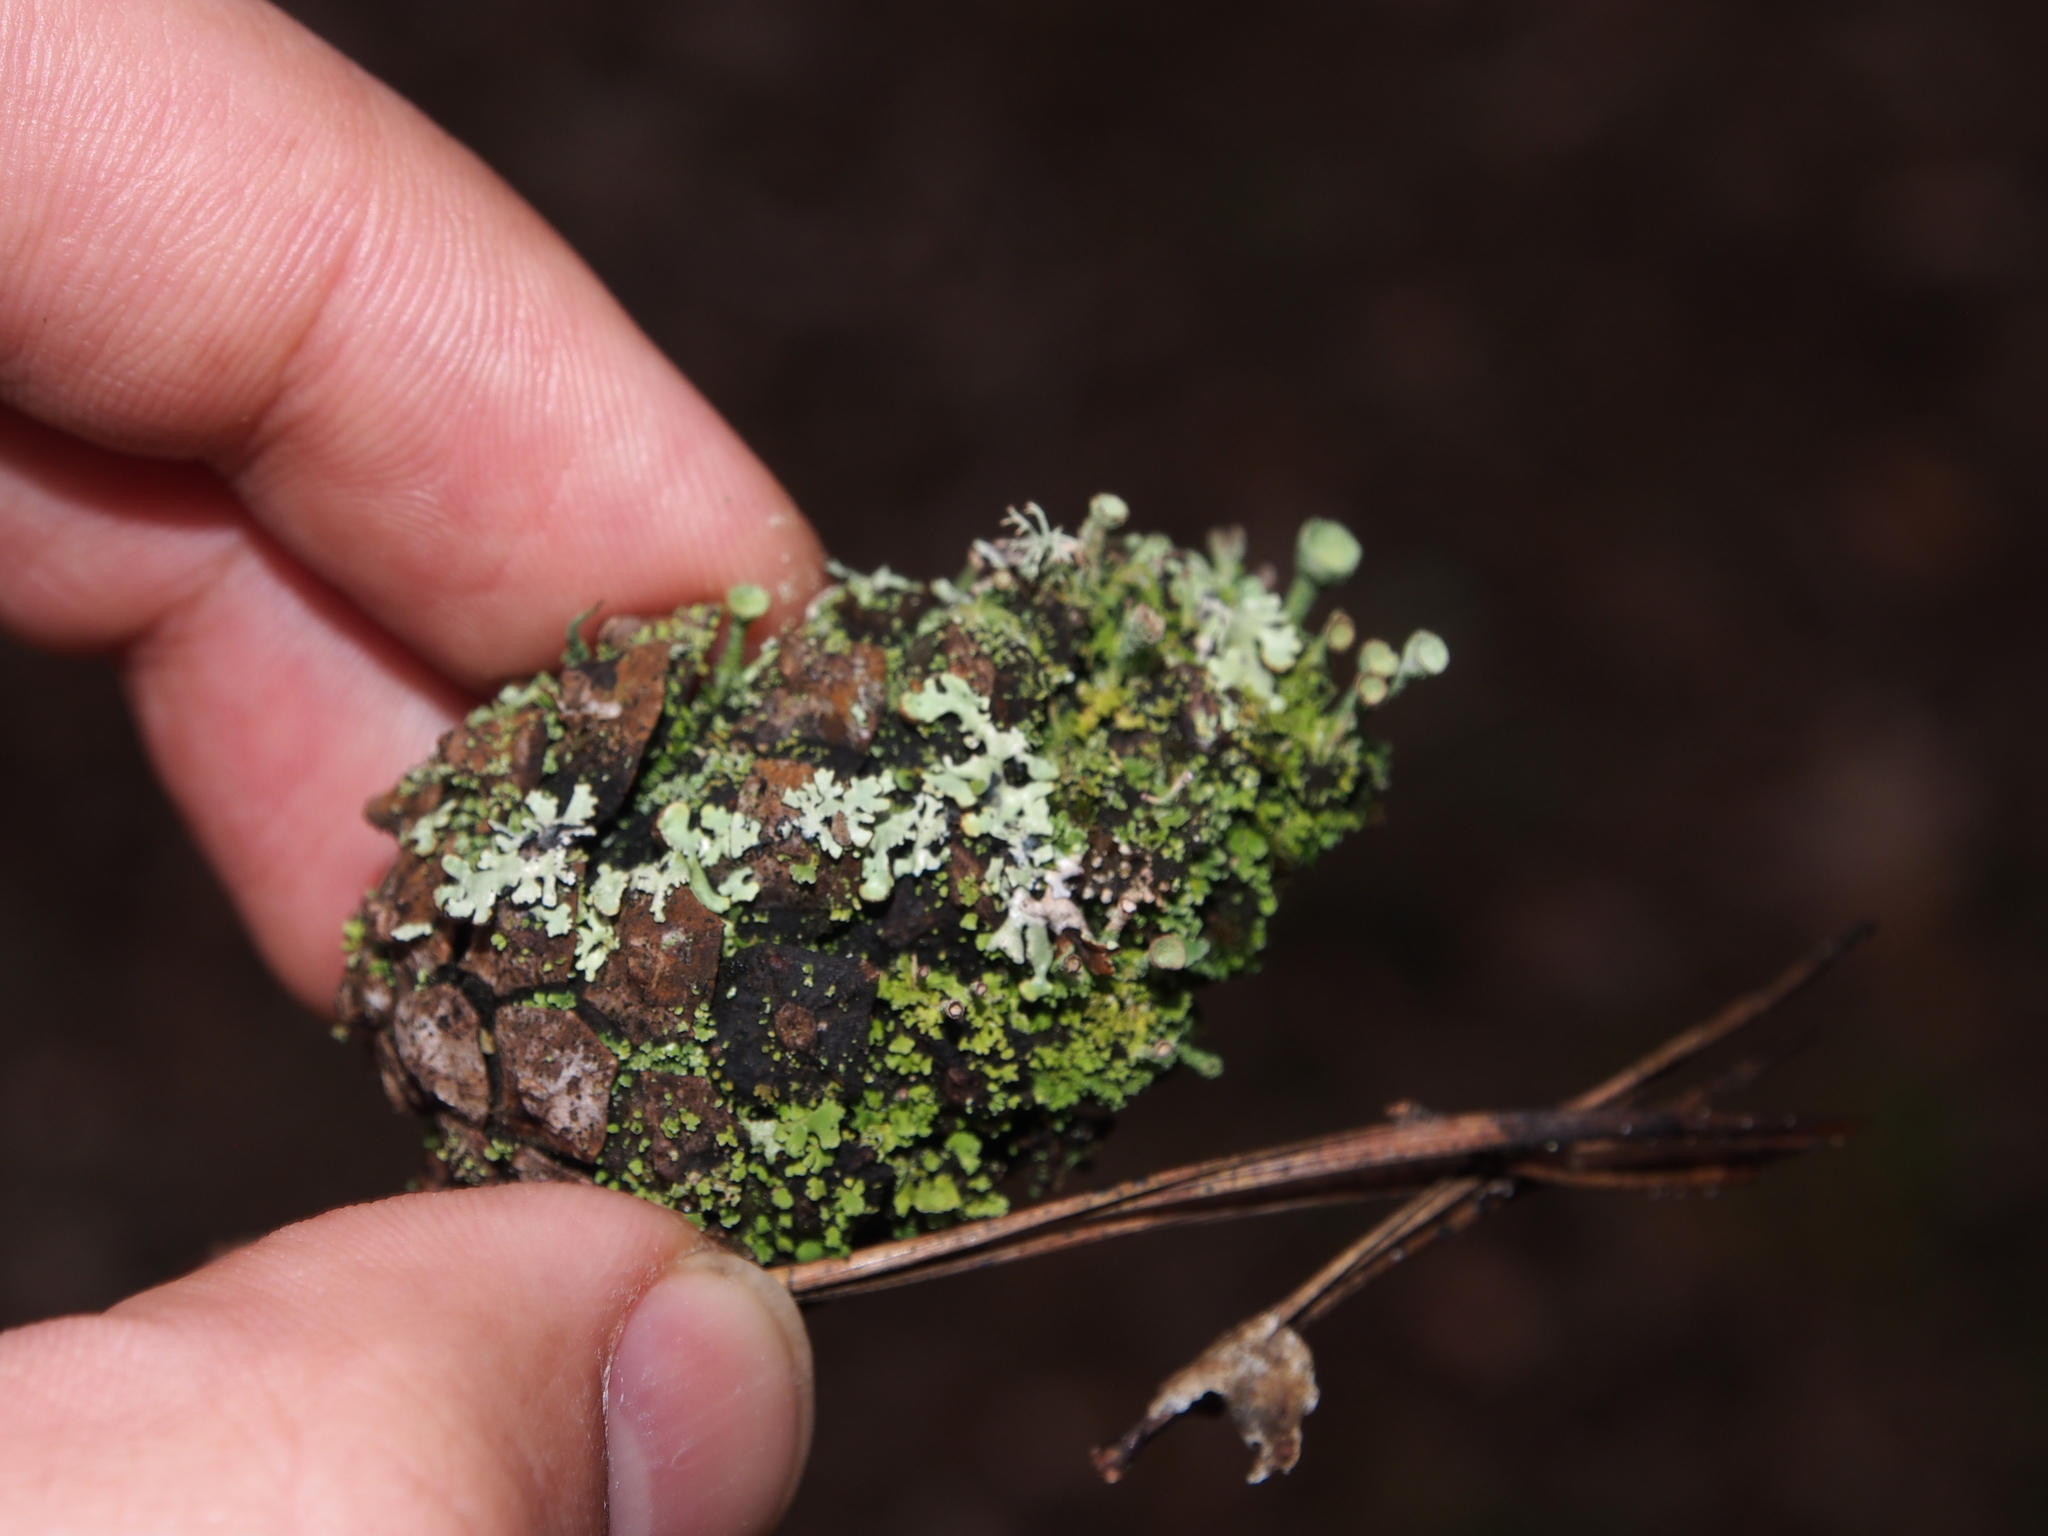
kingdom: Fungi
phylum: Ascomycota
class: Lecanoromycetes
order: Lecanorales
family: Cladoniaceae
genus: Cladonia
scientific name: Cladonia
